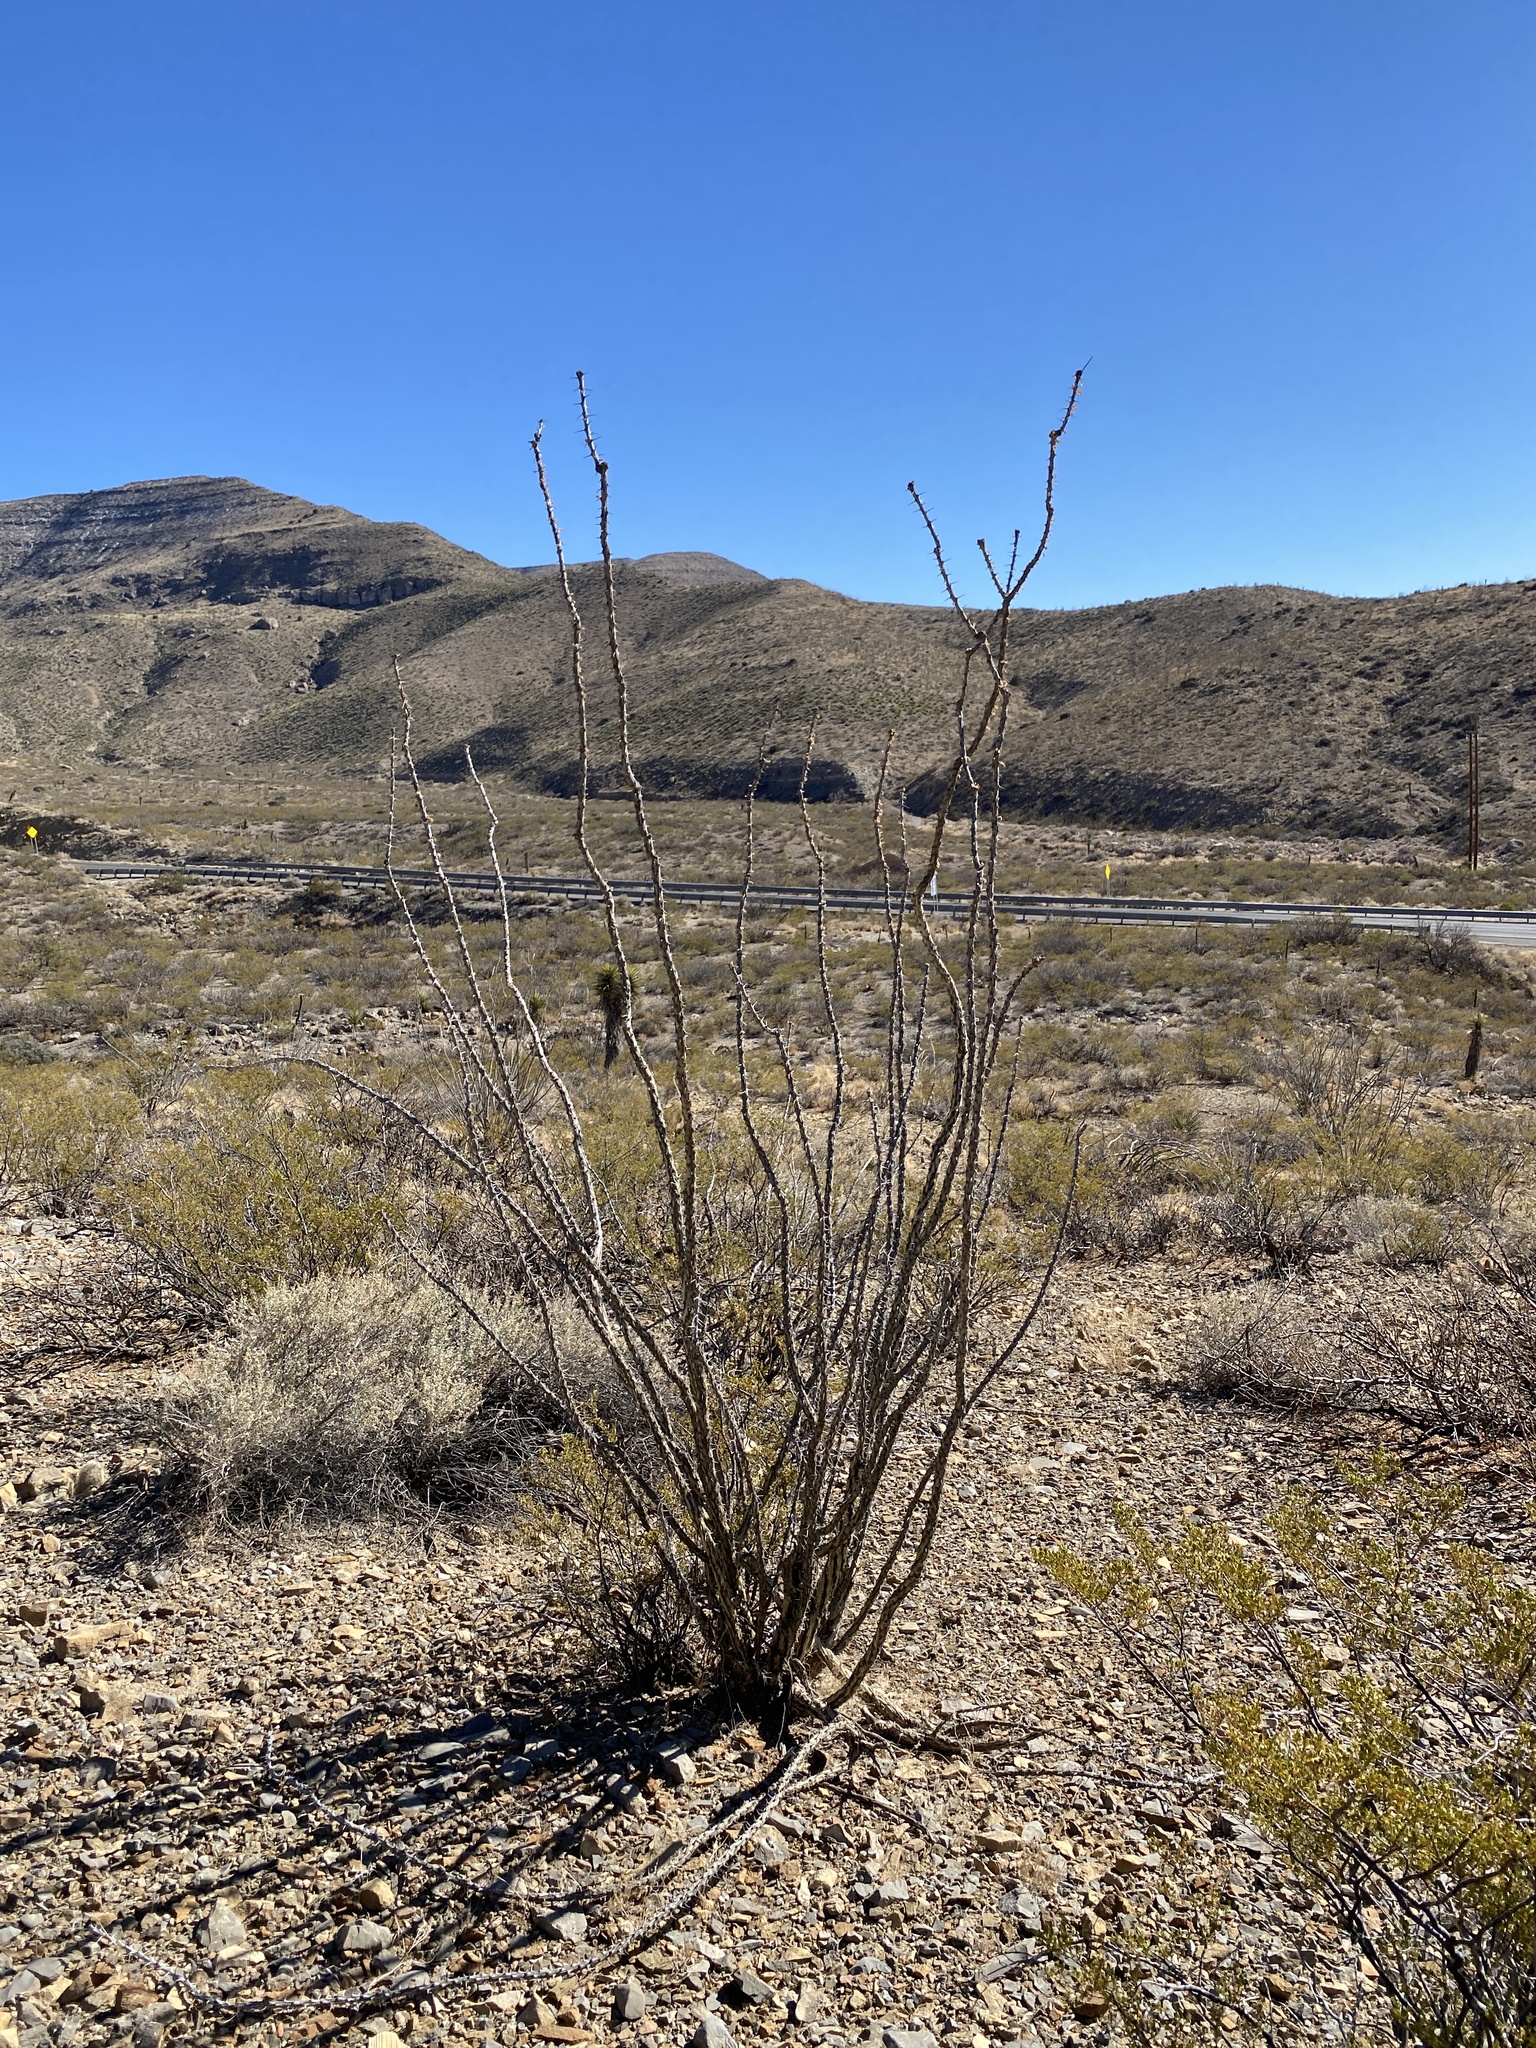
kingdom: Plantae
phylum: Tracheophyta
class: Magnoliopsida
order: Ericales
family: Fouquieriaceae
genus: Fouquieria
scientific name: Fouquieria splendens
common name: Vine-cactus
